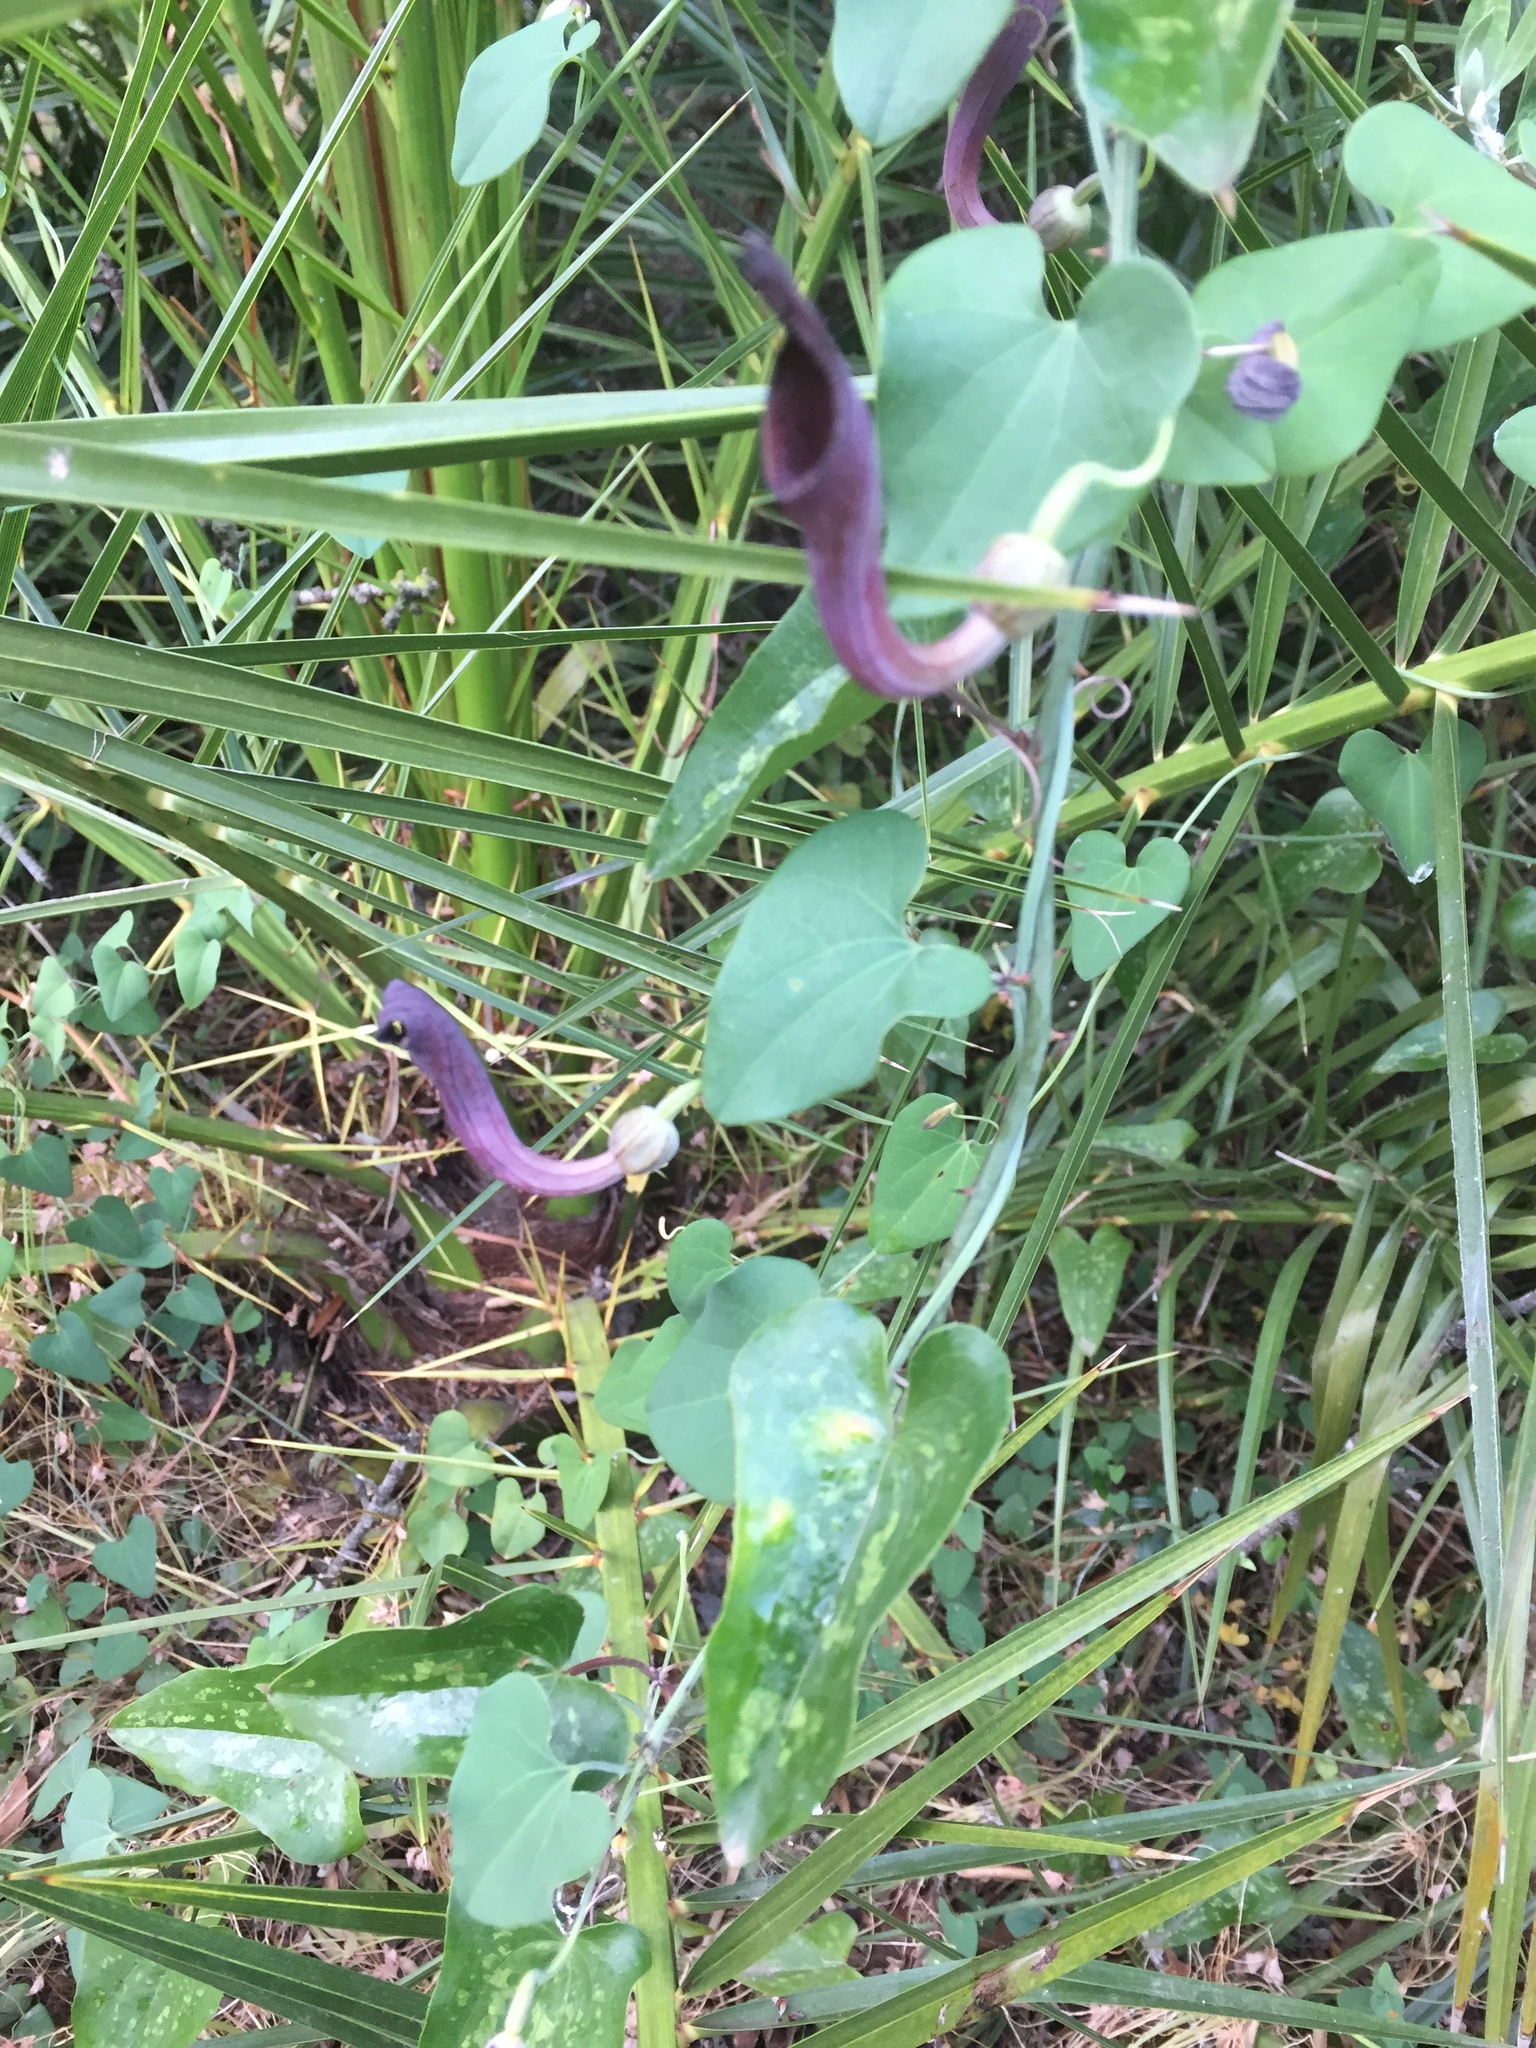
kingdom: Plantae
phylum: Tracheophyta
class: Magnoliopsida
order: Piperales
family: Aristolochiaceae
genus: Aristolochia
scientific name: Aristolochia baetica
